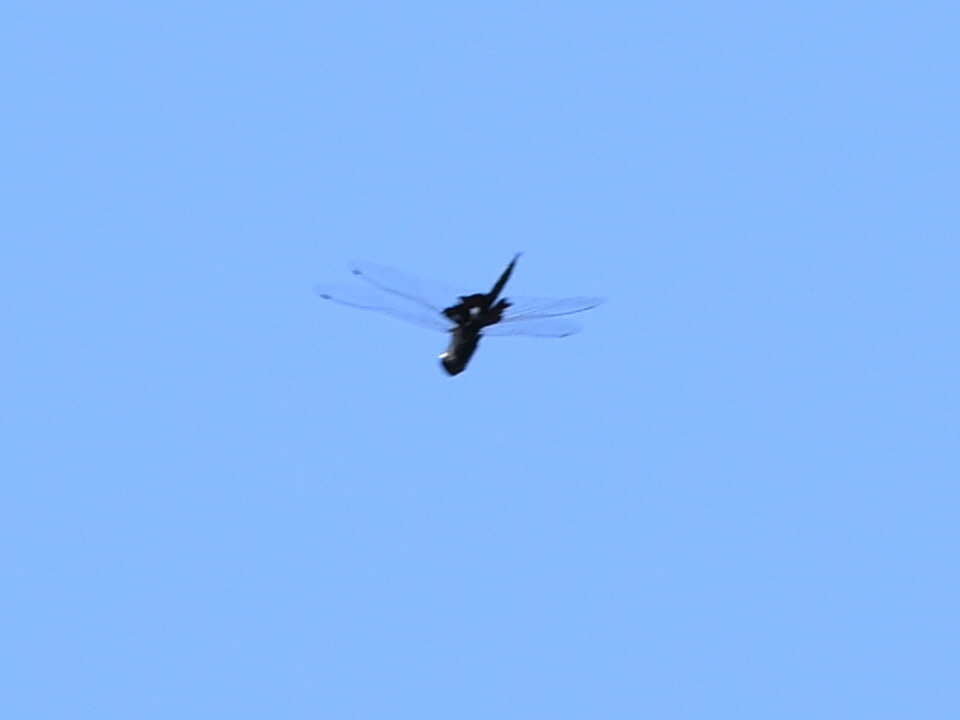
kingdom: Animalia
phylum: Arthropoda
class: Insecta
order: Odonata
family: Libellulidae
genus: Tramea
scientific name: Tramea lacerata
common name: Black saddlebags
